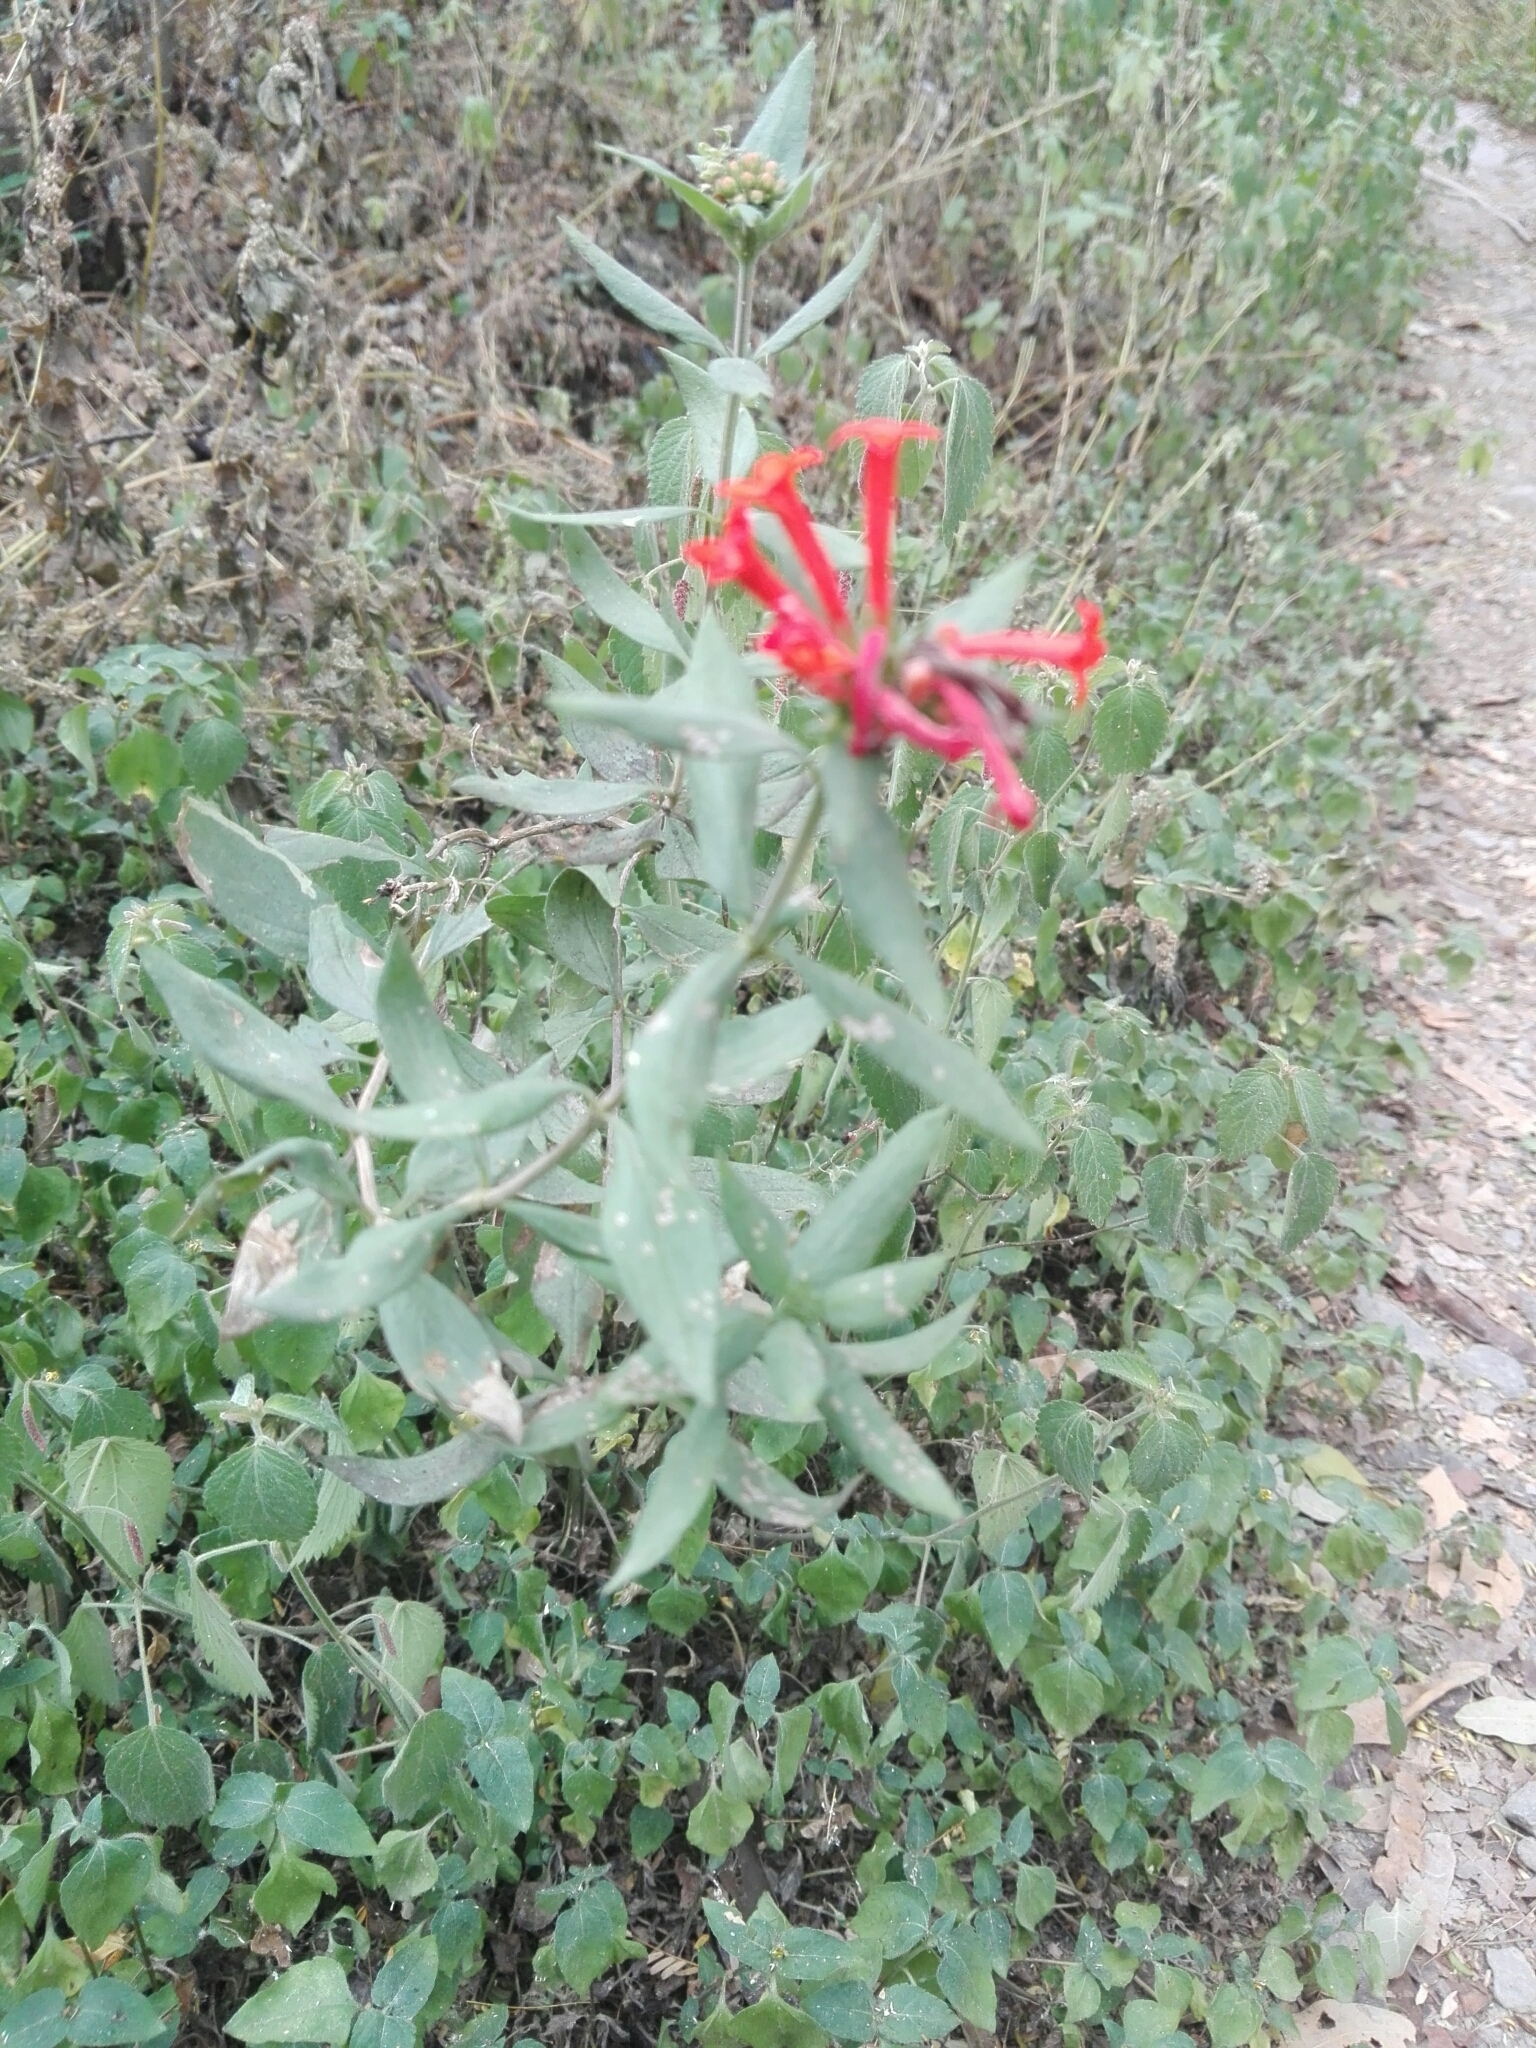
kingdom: Plantae
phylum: Tracheophyta
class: Magnoliopsida
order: Gentianales
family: Rubiaceae
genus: Bouvardia
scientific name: Bouvardia ternifolia
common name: Scarlet bouvardia
